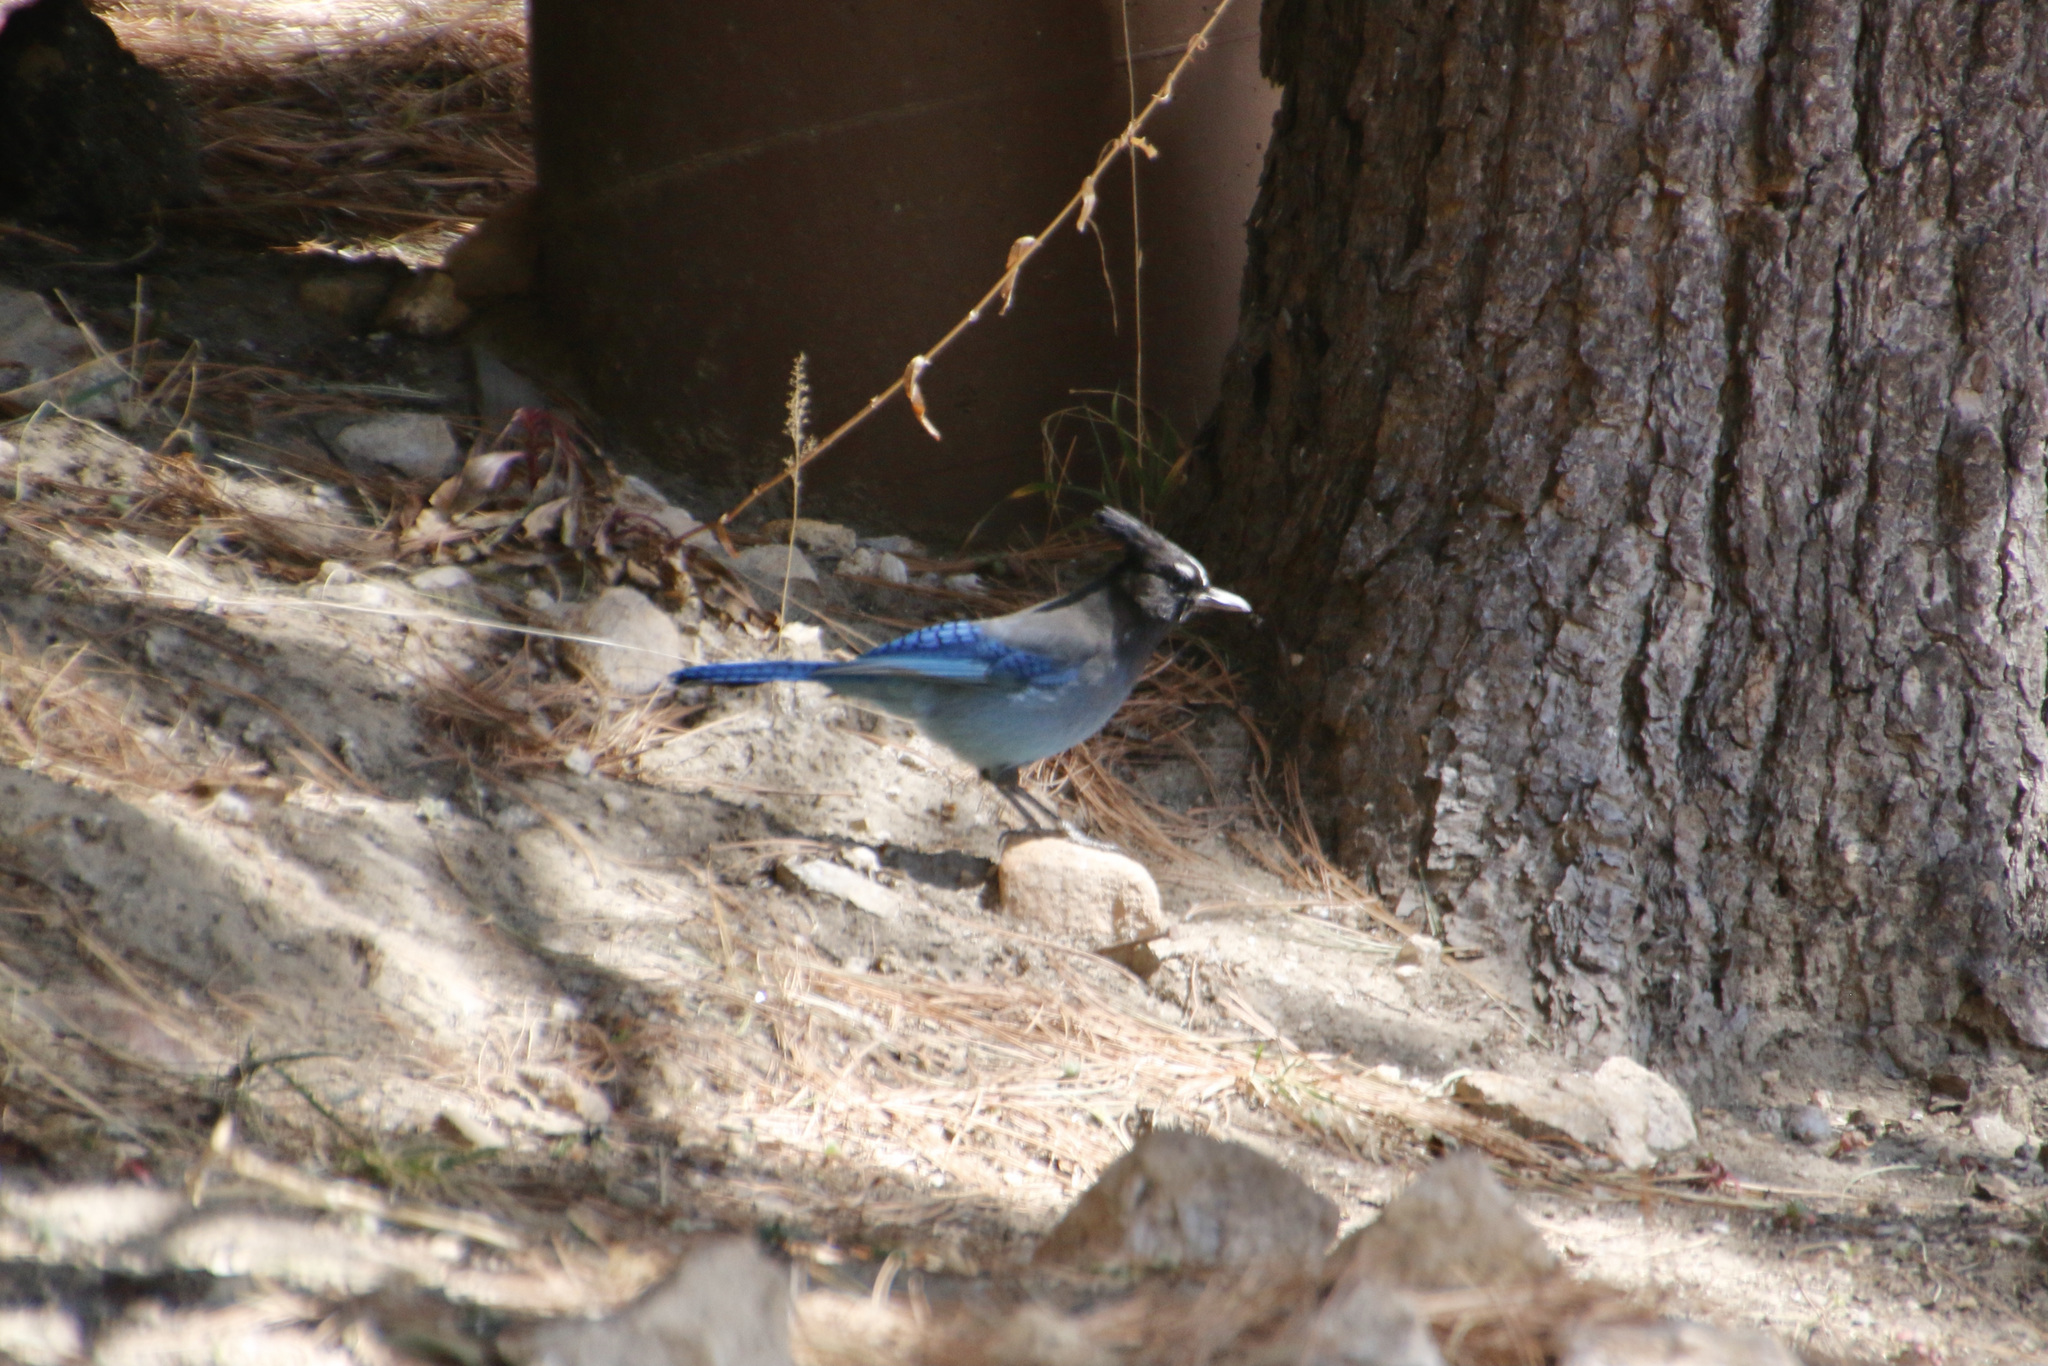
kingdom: Animalia
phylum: Chordata
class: Aves
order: Passeriformes
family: Corvidae
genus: Cyanocitta
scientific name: Cyanocitta stelleri
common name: Steller's jay
